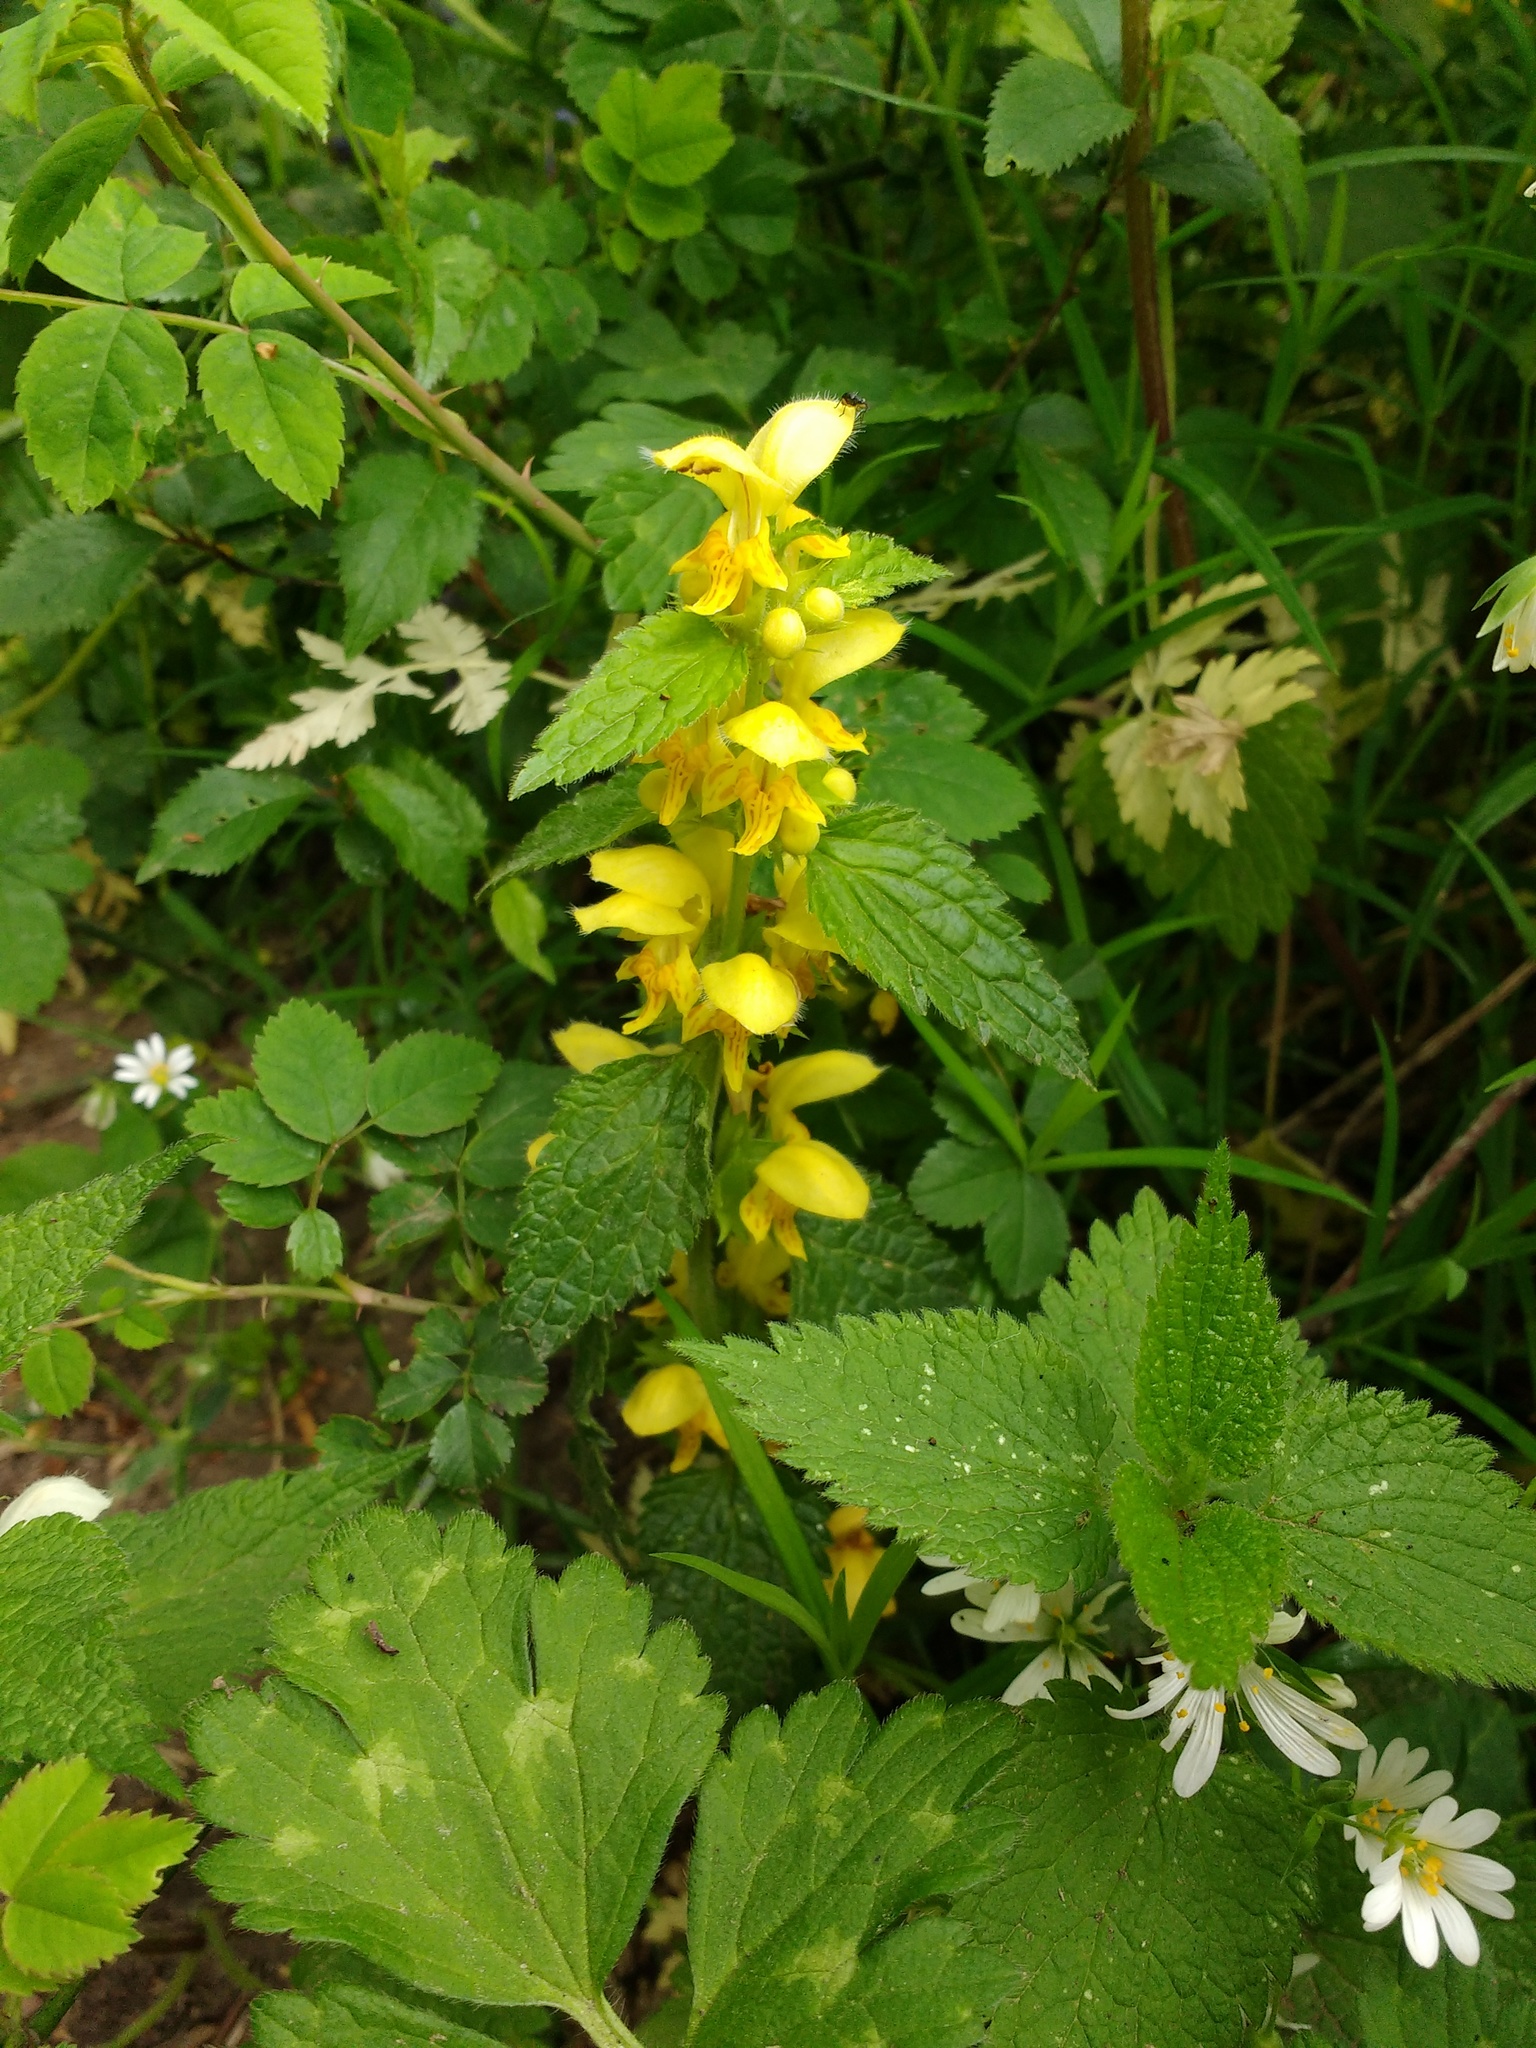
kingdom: Plantae
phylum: Tracheophyta
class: Magnoliopsida
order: Lamiales
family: Lamiaceae
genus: Lamium
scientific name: Lamium galeobdolon
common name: Yellow archangel
